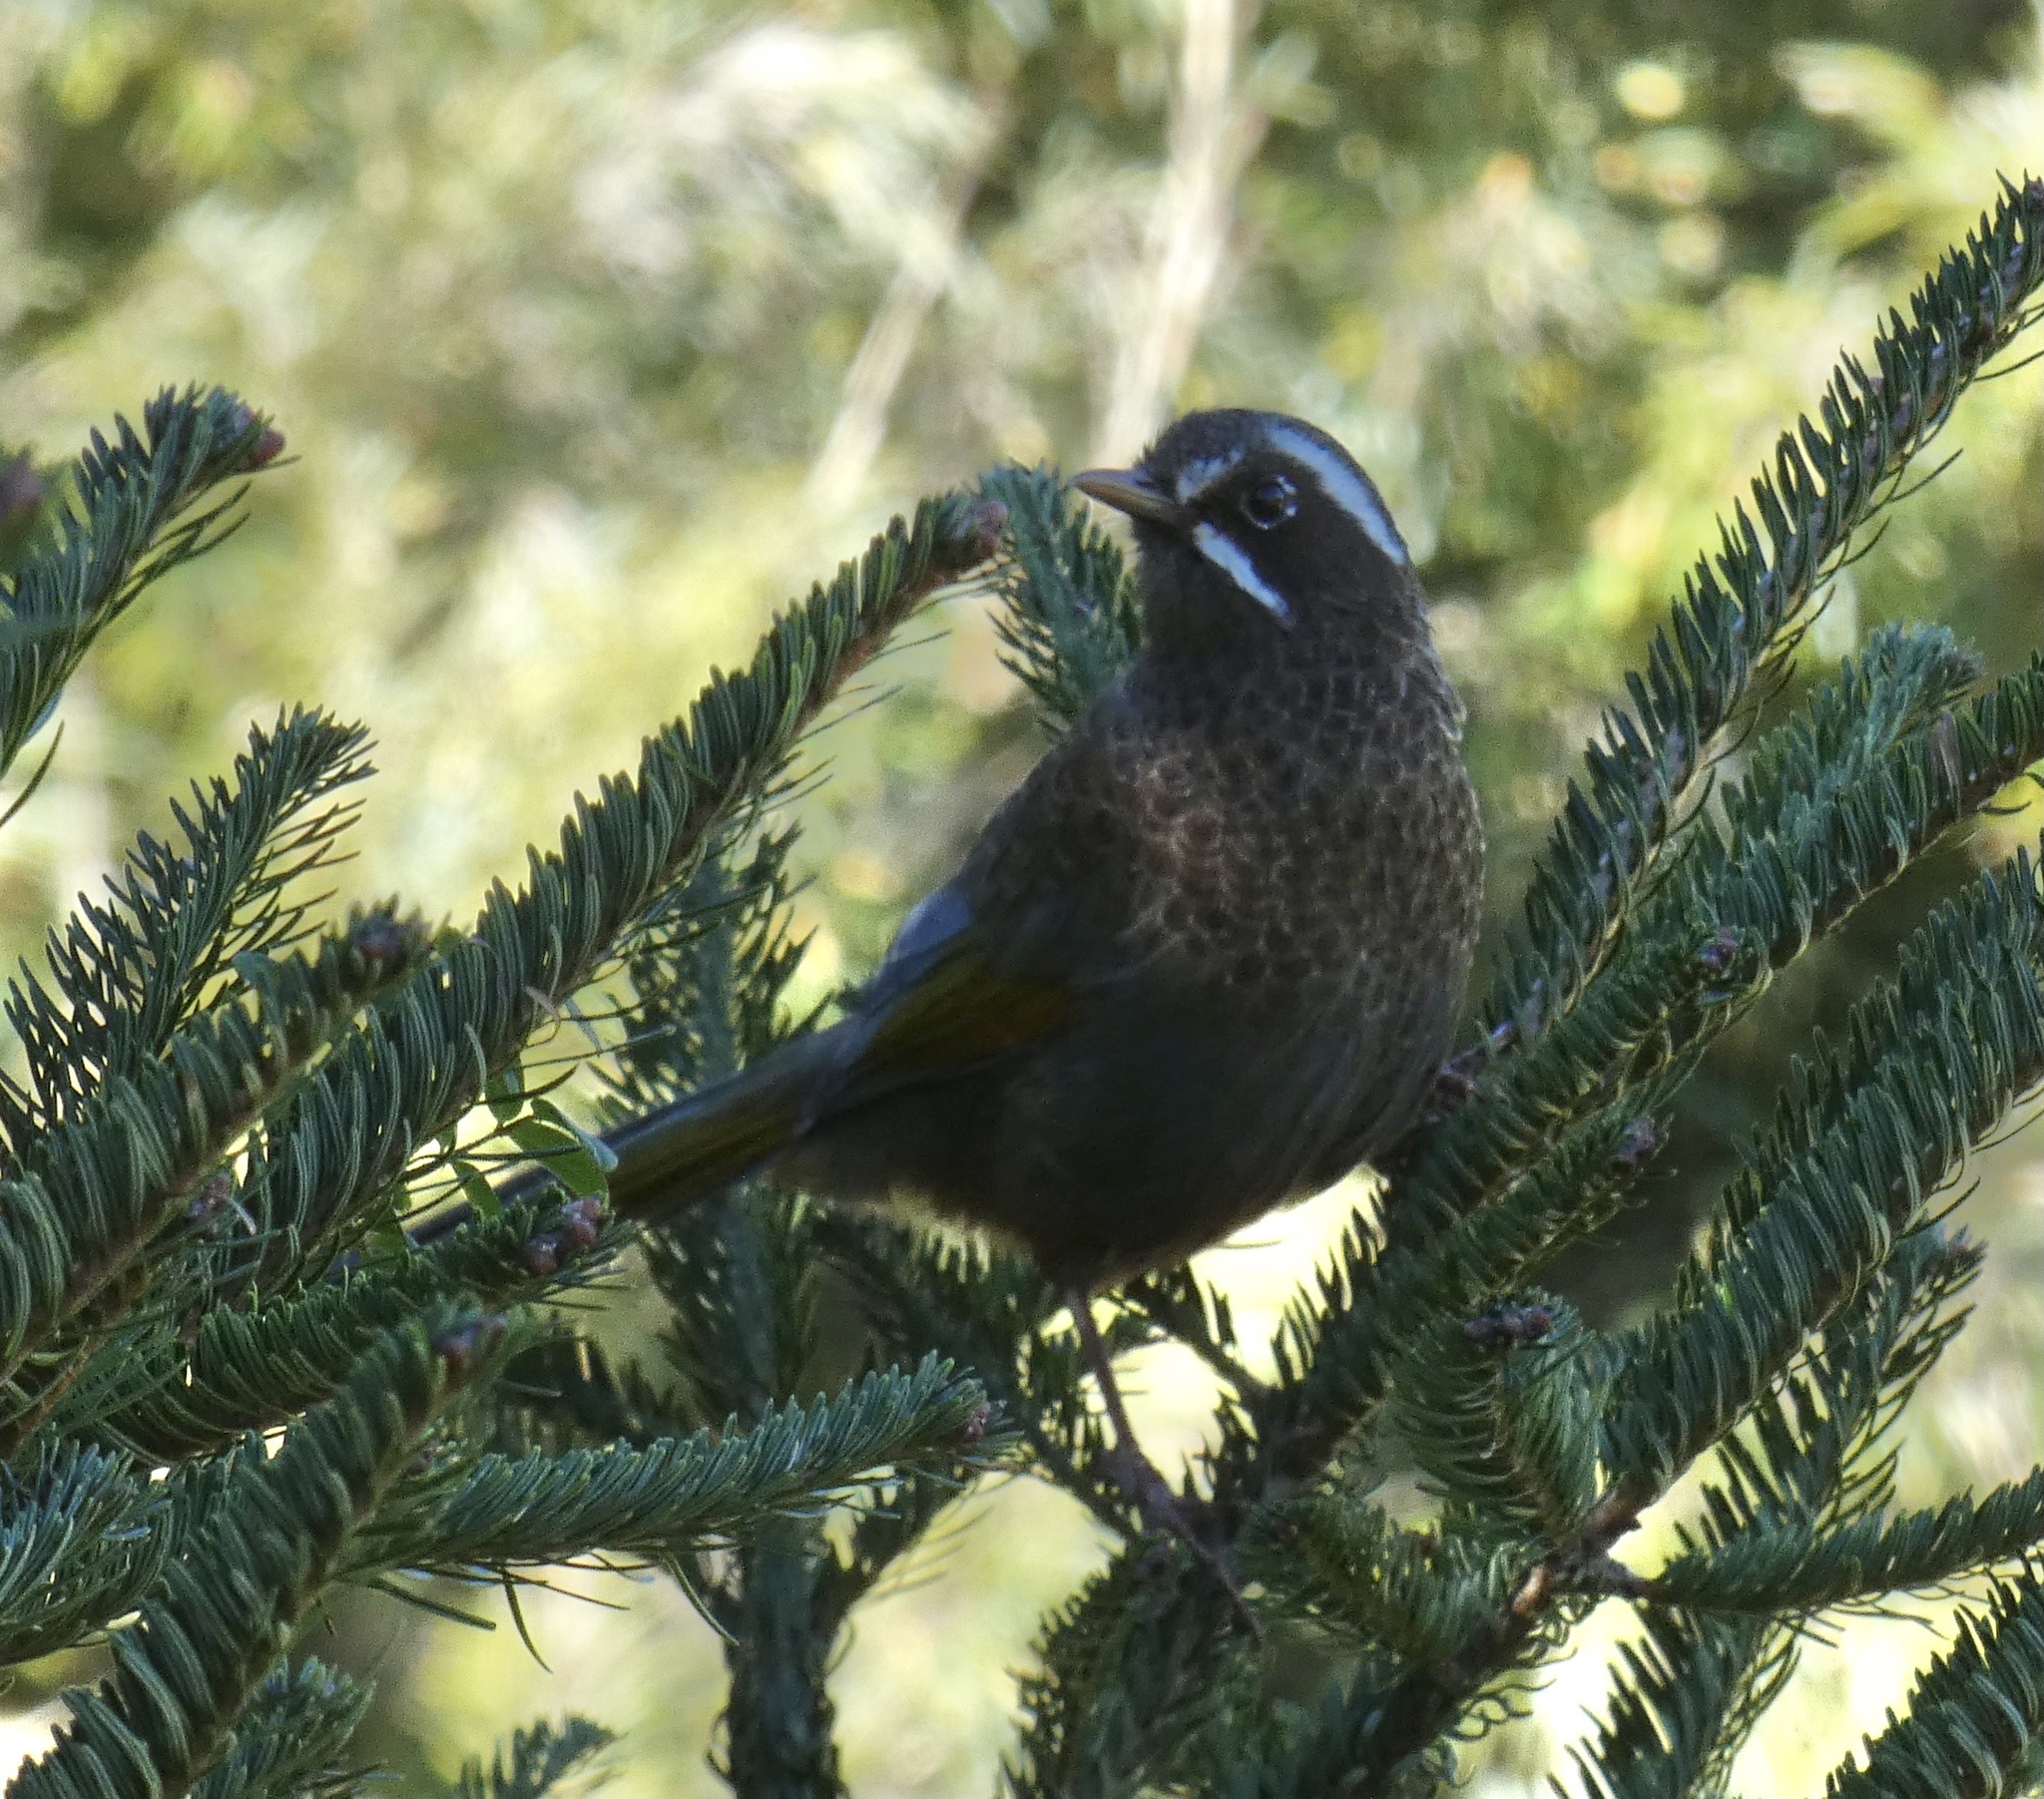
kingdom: Animalia
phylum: Chordata
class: Aves
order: Passeriformes
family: Leiothrichidae
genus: Trochalopteron
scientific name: Trochalopteron morrisonianum
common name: White-whiskered laughingthrush
